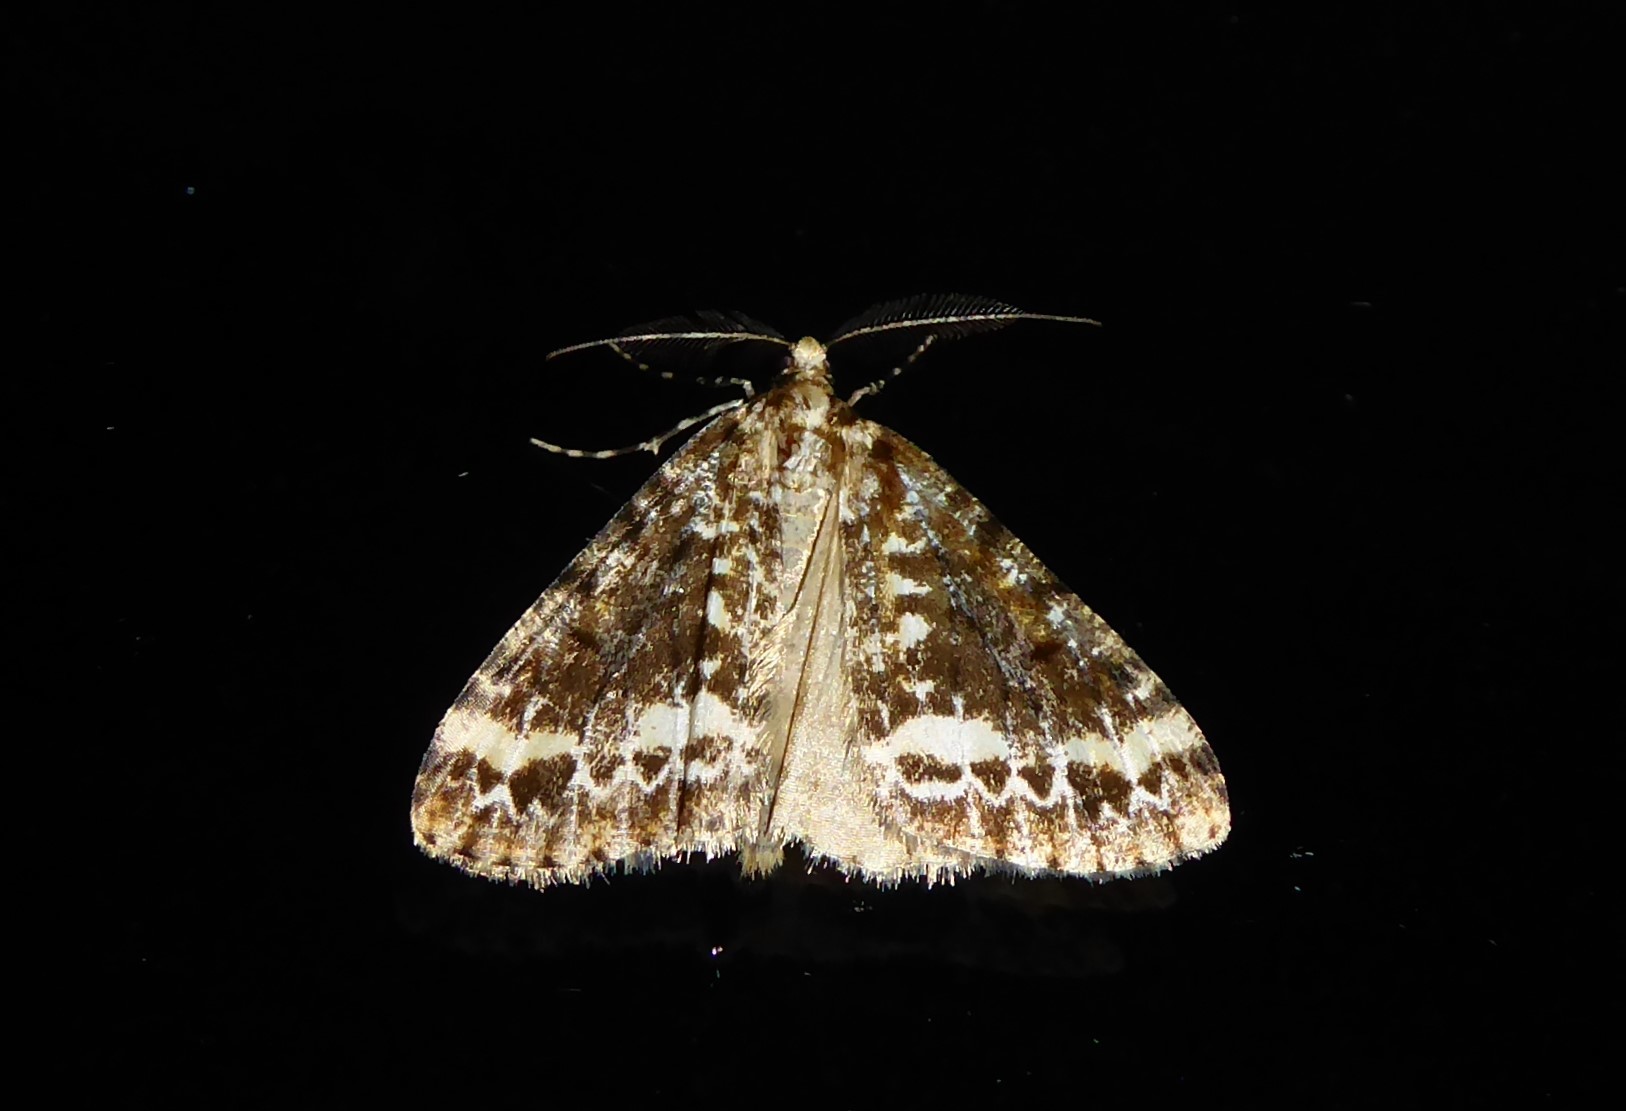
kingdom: Animalia
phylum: Arthropoda
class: Insecta
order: Lepidoptera
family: Geometridae
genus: Pseudocoremia
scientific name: Pseudocoremia leucelaea
